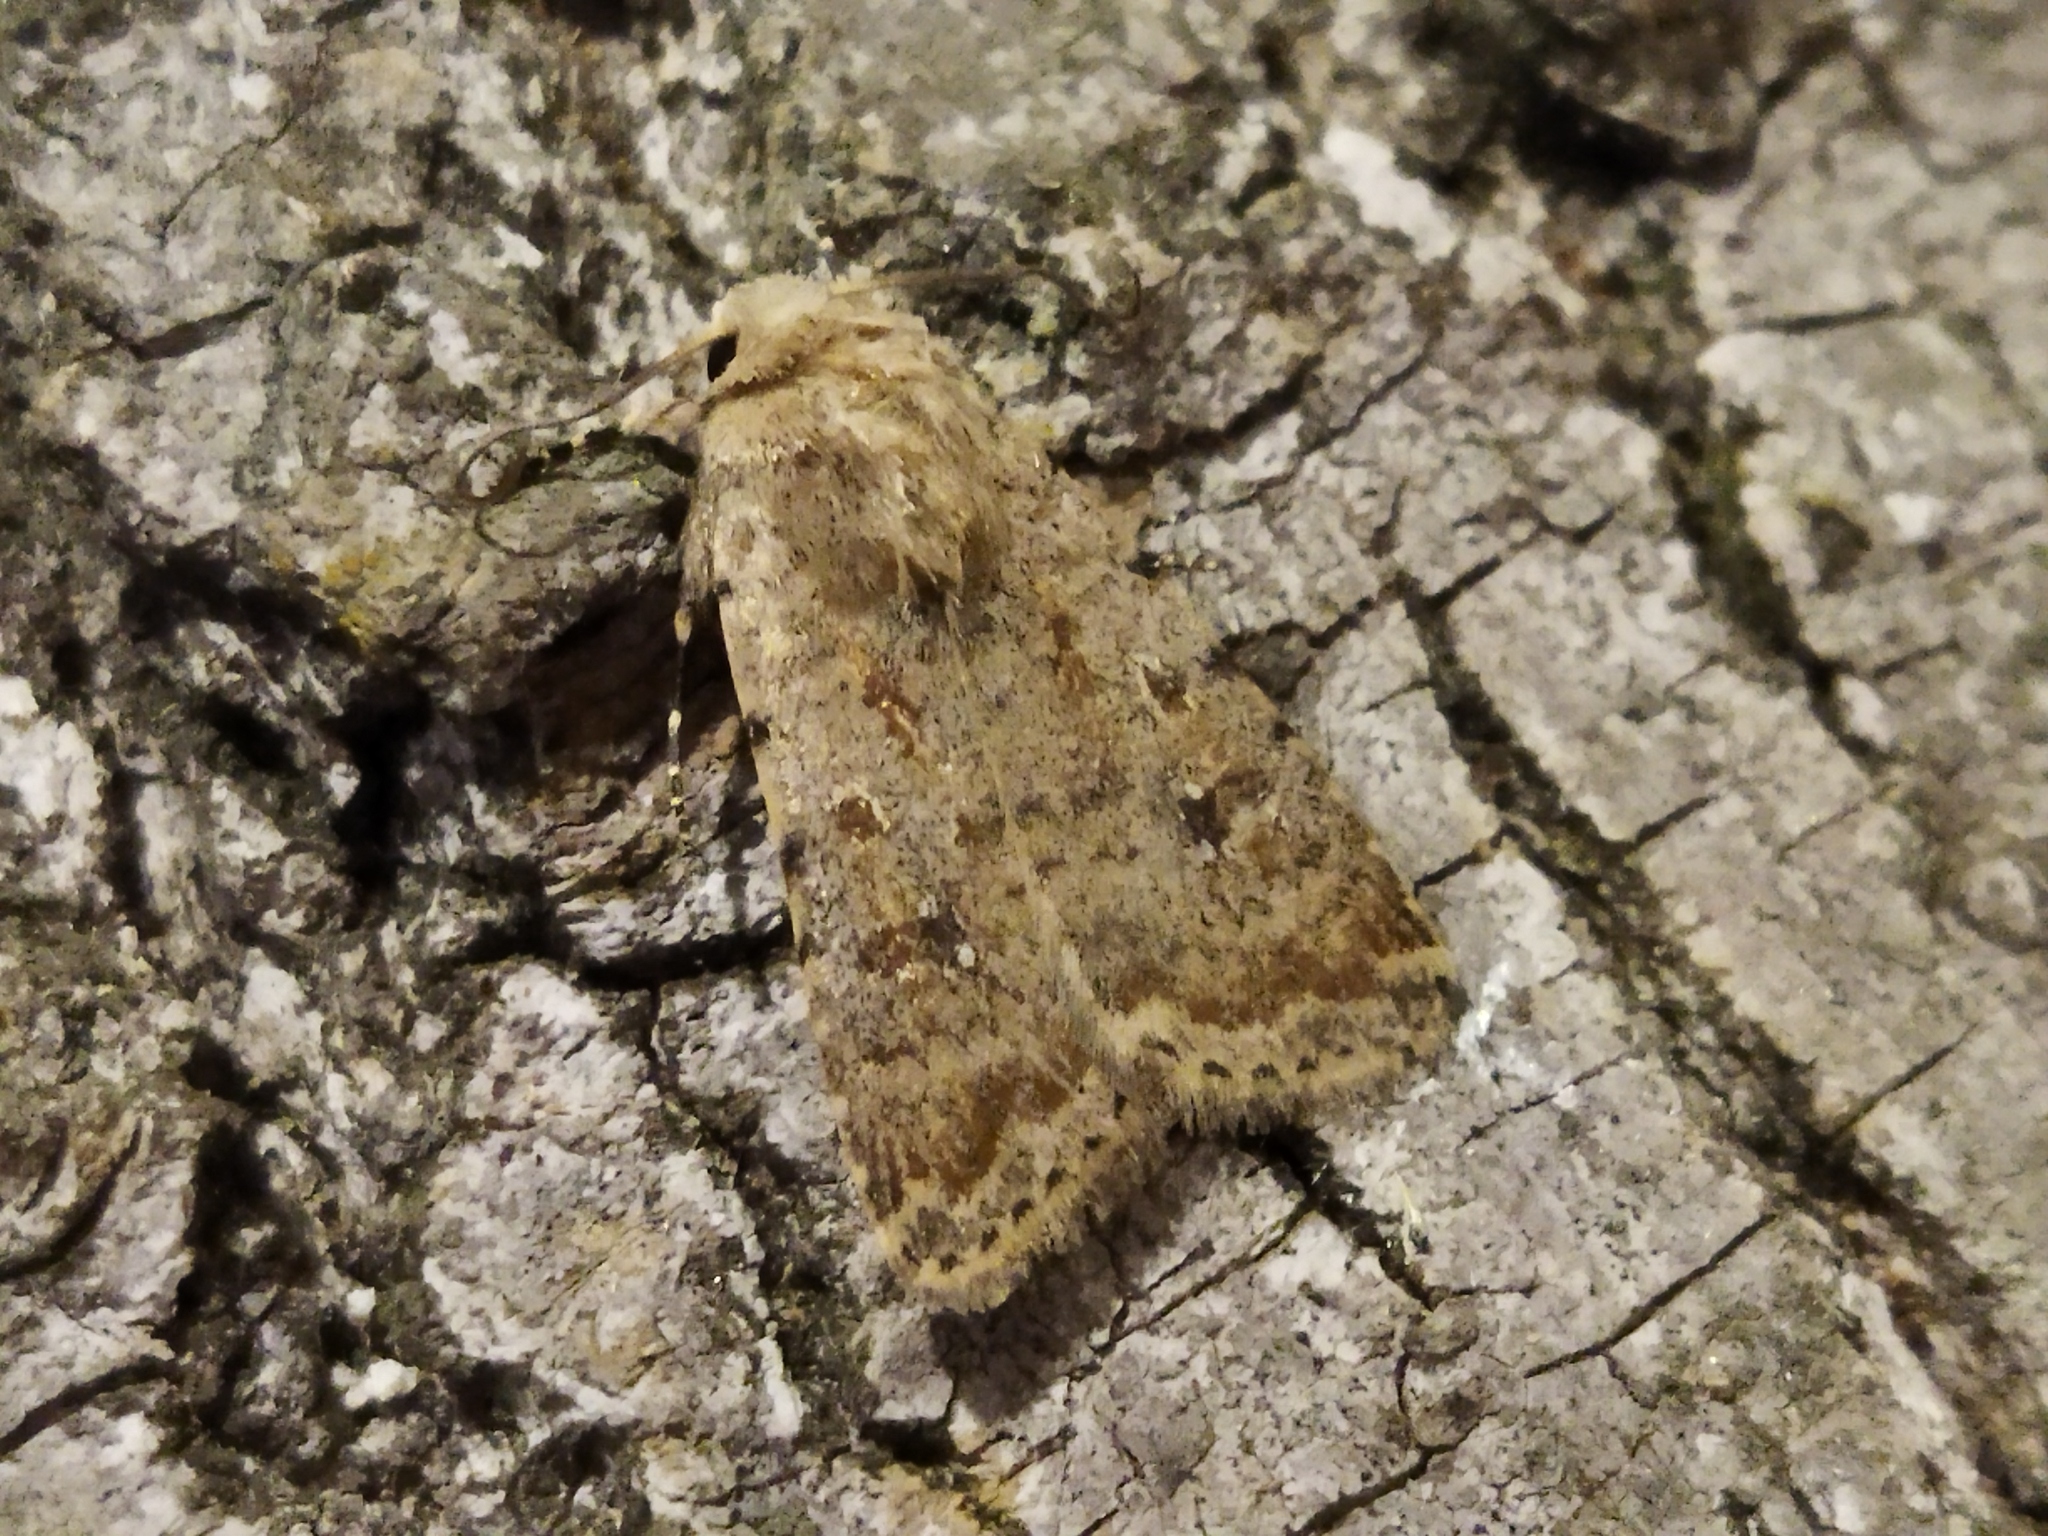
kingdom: Animalia
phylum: Arthropoda
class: Insecta
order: Lepidoptera
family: Noctuidae
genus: Caradrina
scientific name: Caradrina clavipalpis
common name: Pale mottled willow
